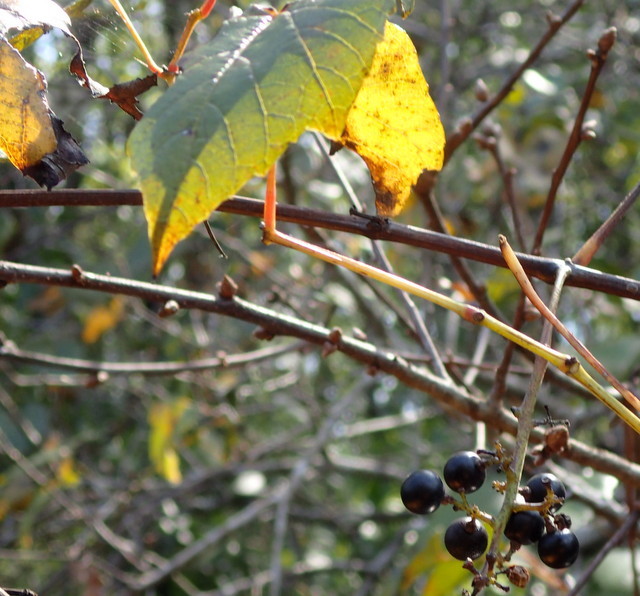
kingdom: Plantae
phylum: Tracheophyta
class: Magnoliopsida
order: Vitales
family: Vitaceae
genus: Vitis
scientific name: Vitis vulpina
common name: Frost grape
